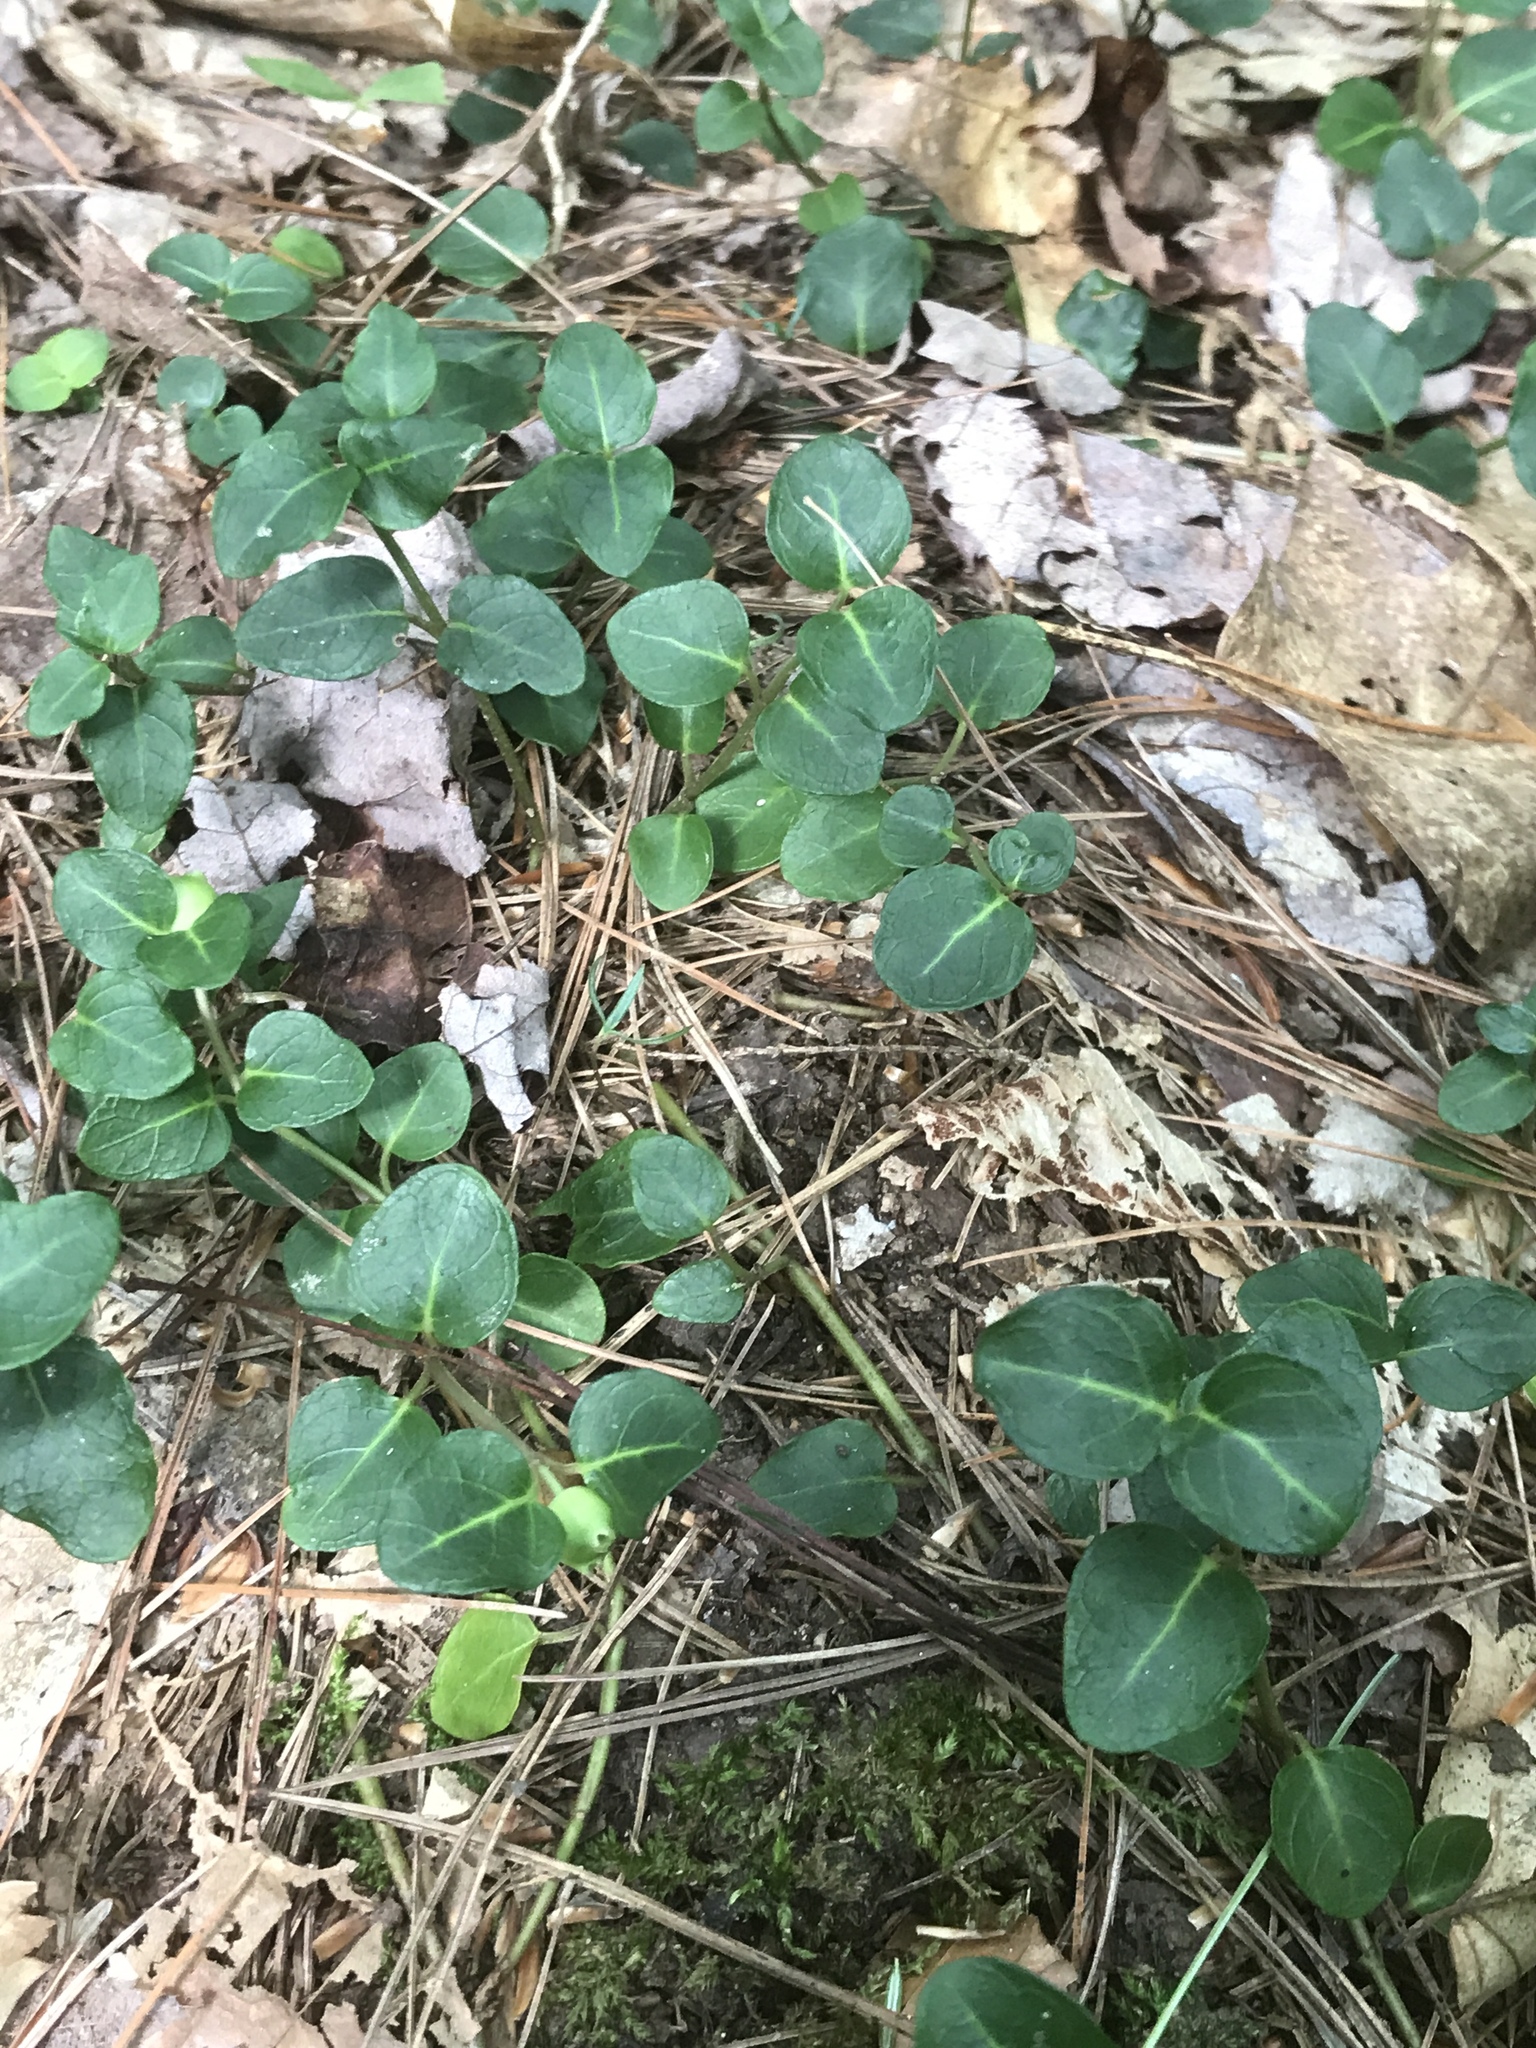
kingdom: Plantae
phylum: Tracheophyta
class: Magnoliopsida
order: Gentianales
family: Rubiaceae
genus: Mitchella
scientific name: Mitchella repens
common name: Partridge-berry
